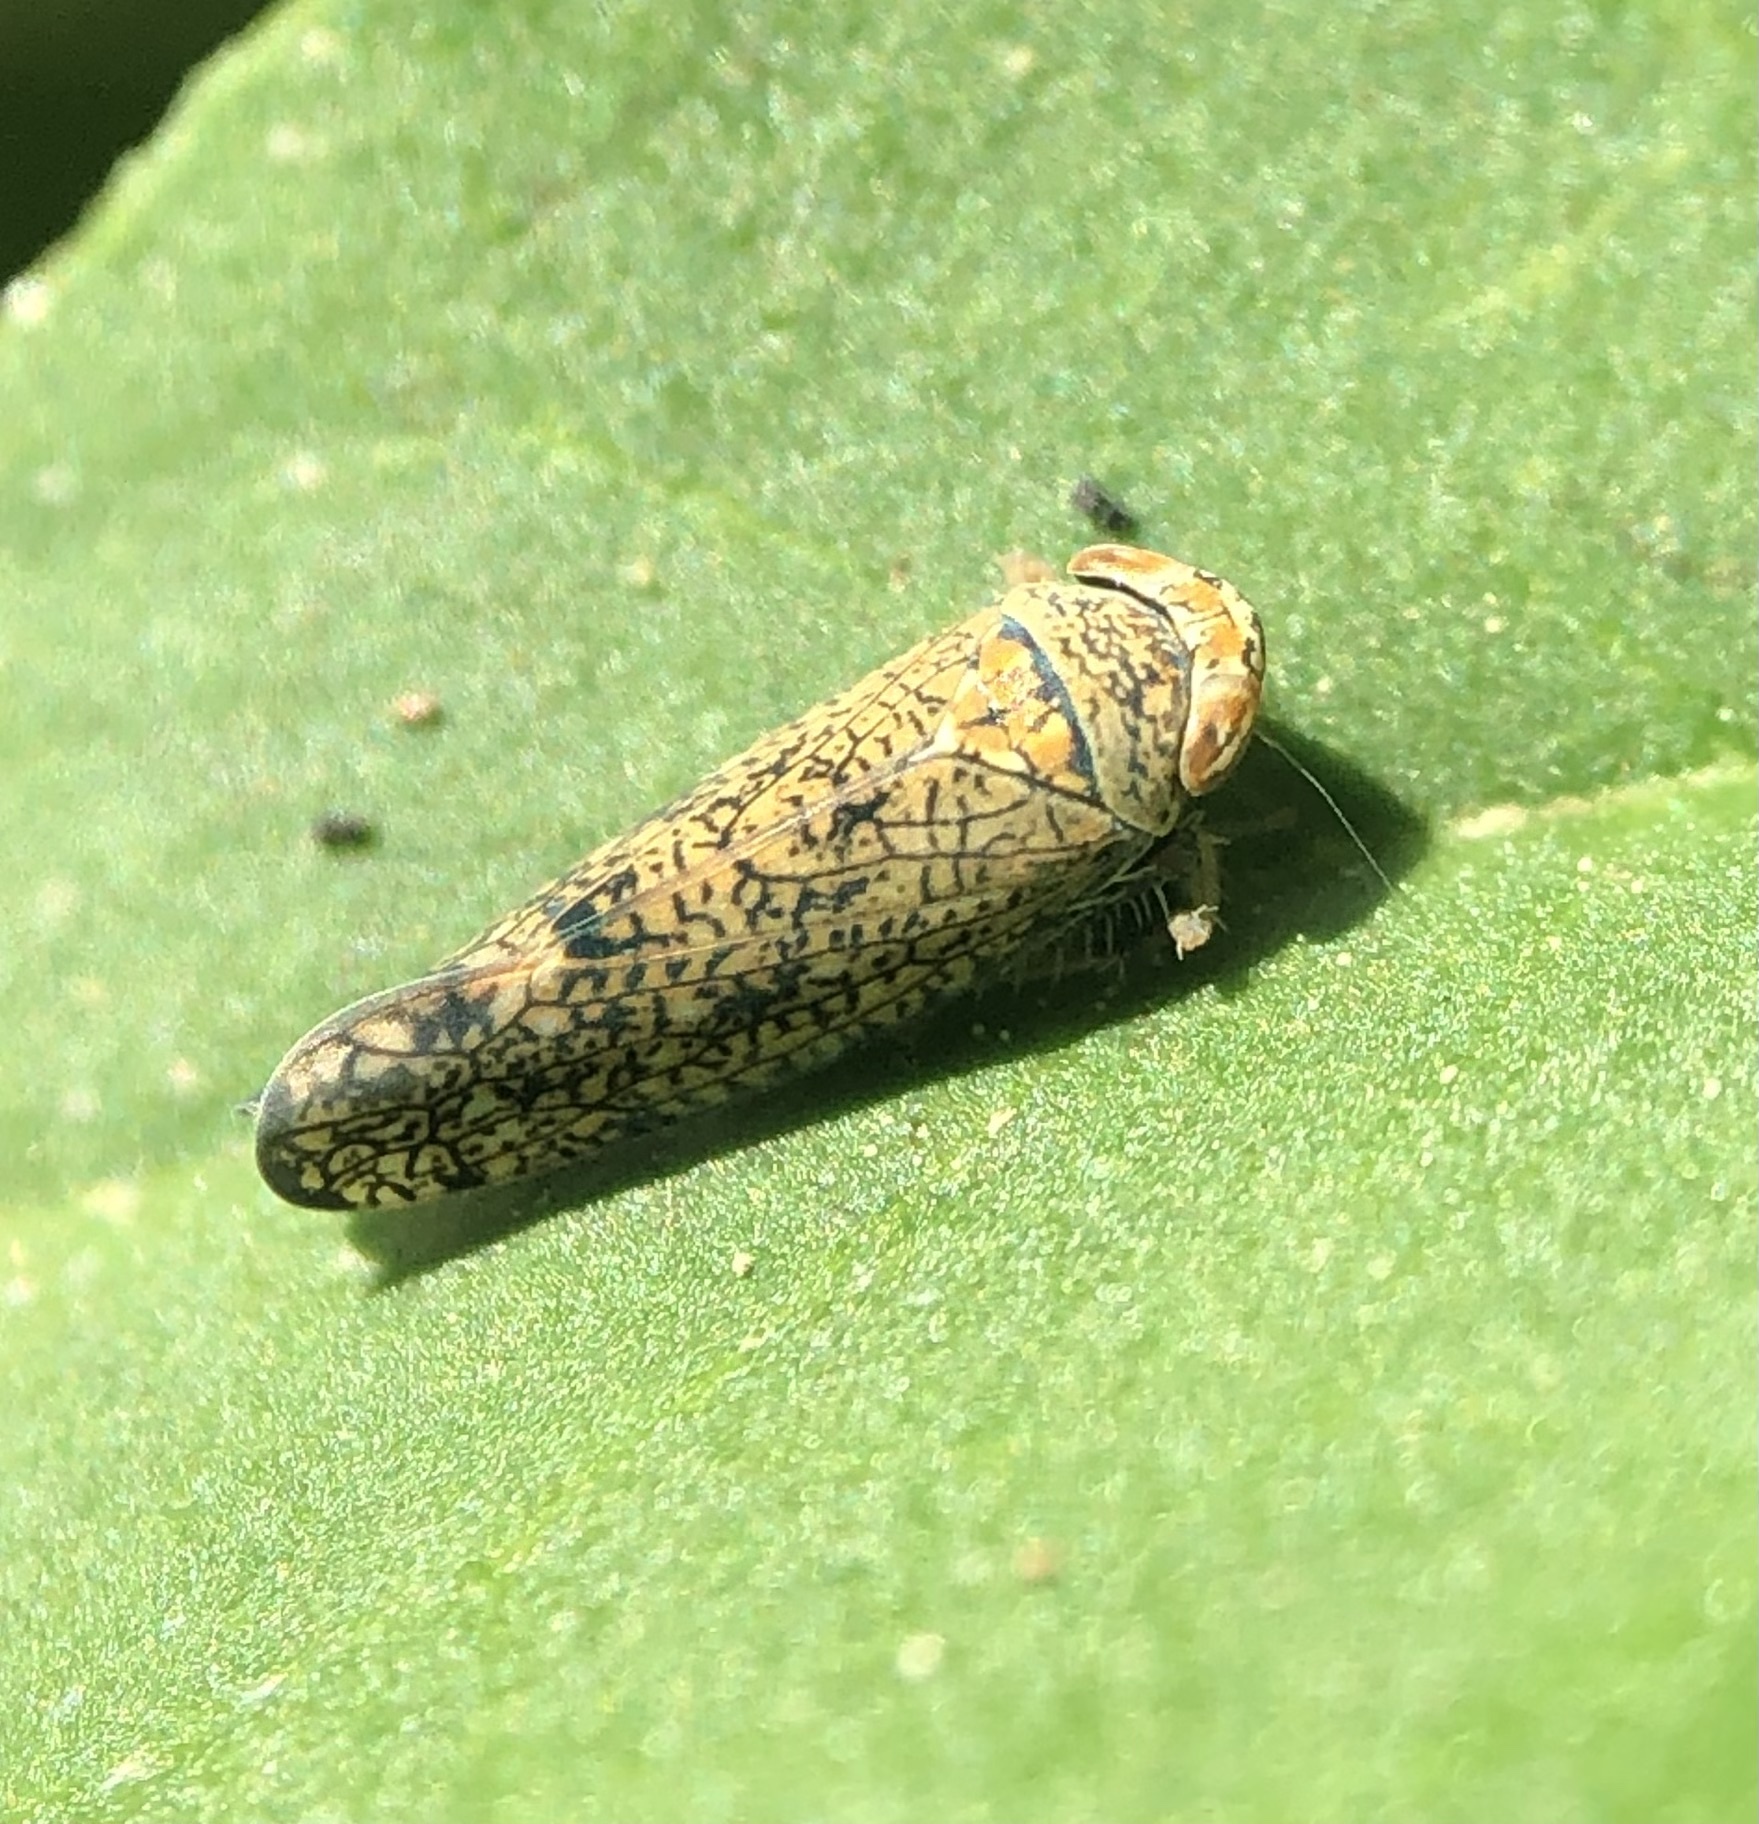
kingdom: Animalia
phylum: Arthropoda
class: Insecta
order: Hemiptera
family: Cicadellidae
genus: Orientus
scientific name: Orientus ishidae
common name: Japanese leafhopper
